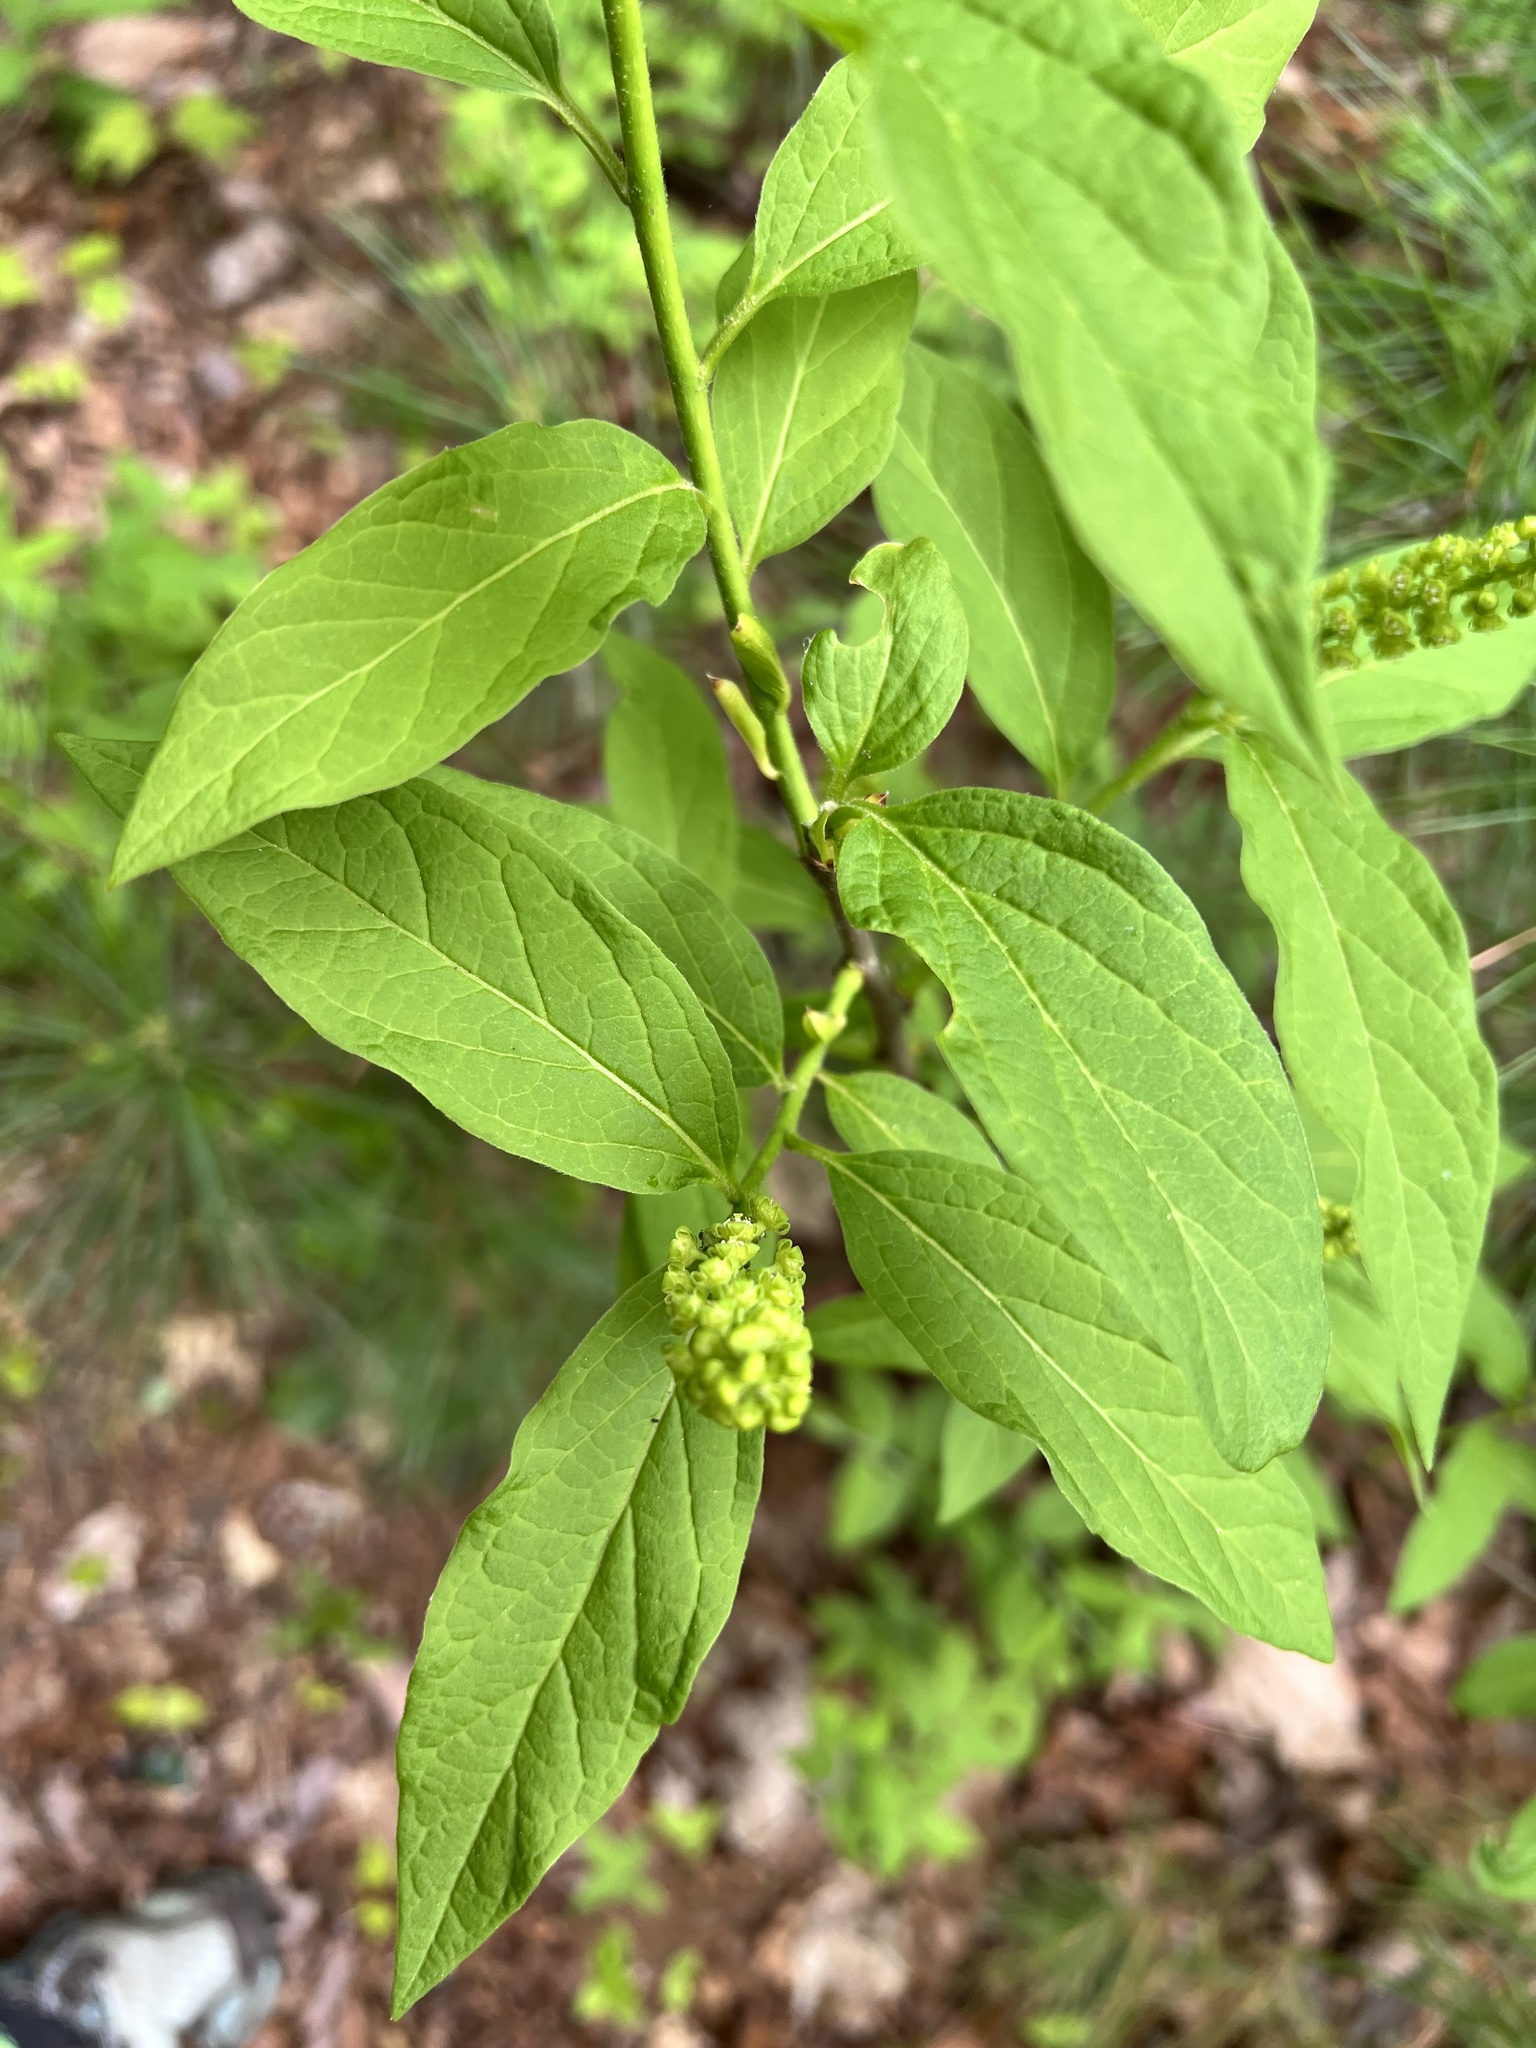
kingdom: Plantae
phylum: Tracheophyta
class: Magnoliopsida
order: Santalales
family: Cervantesiaceae
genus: Pyrularia
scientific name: Pyrularia pubera
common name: Oilnut
